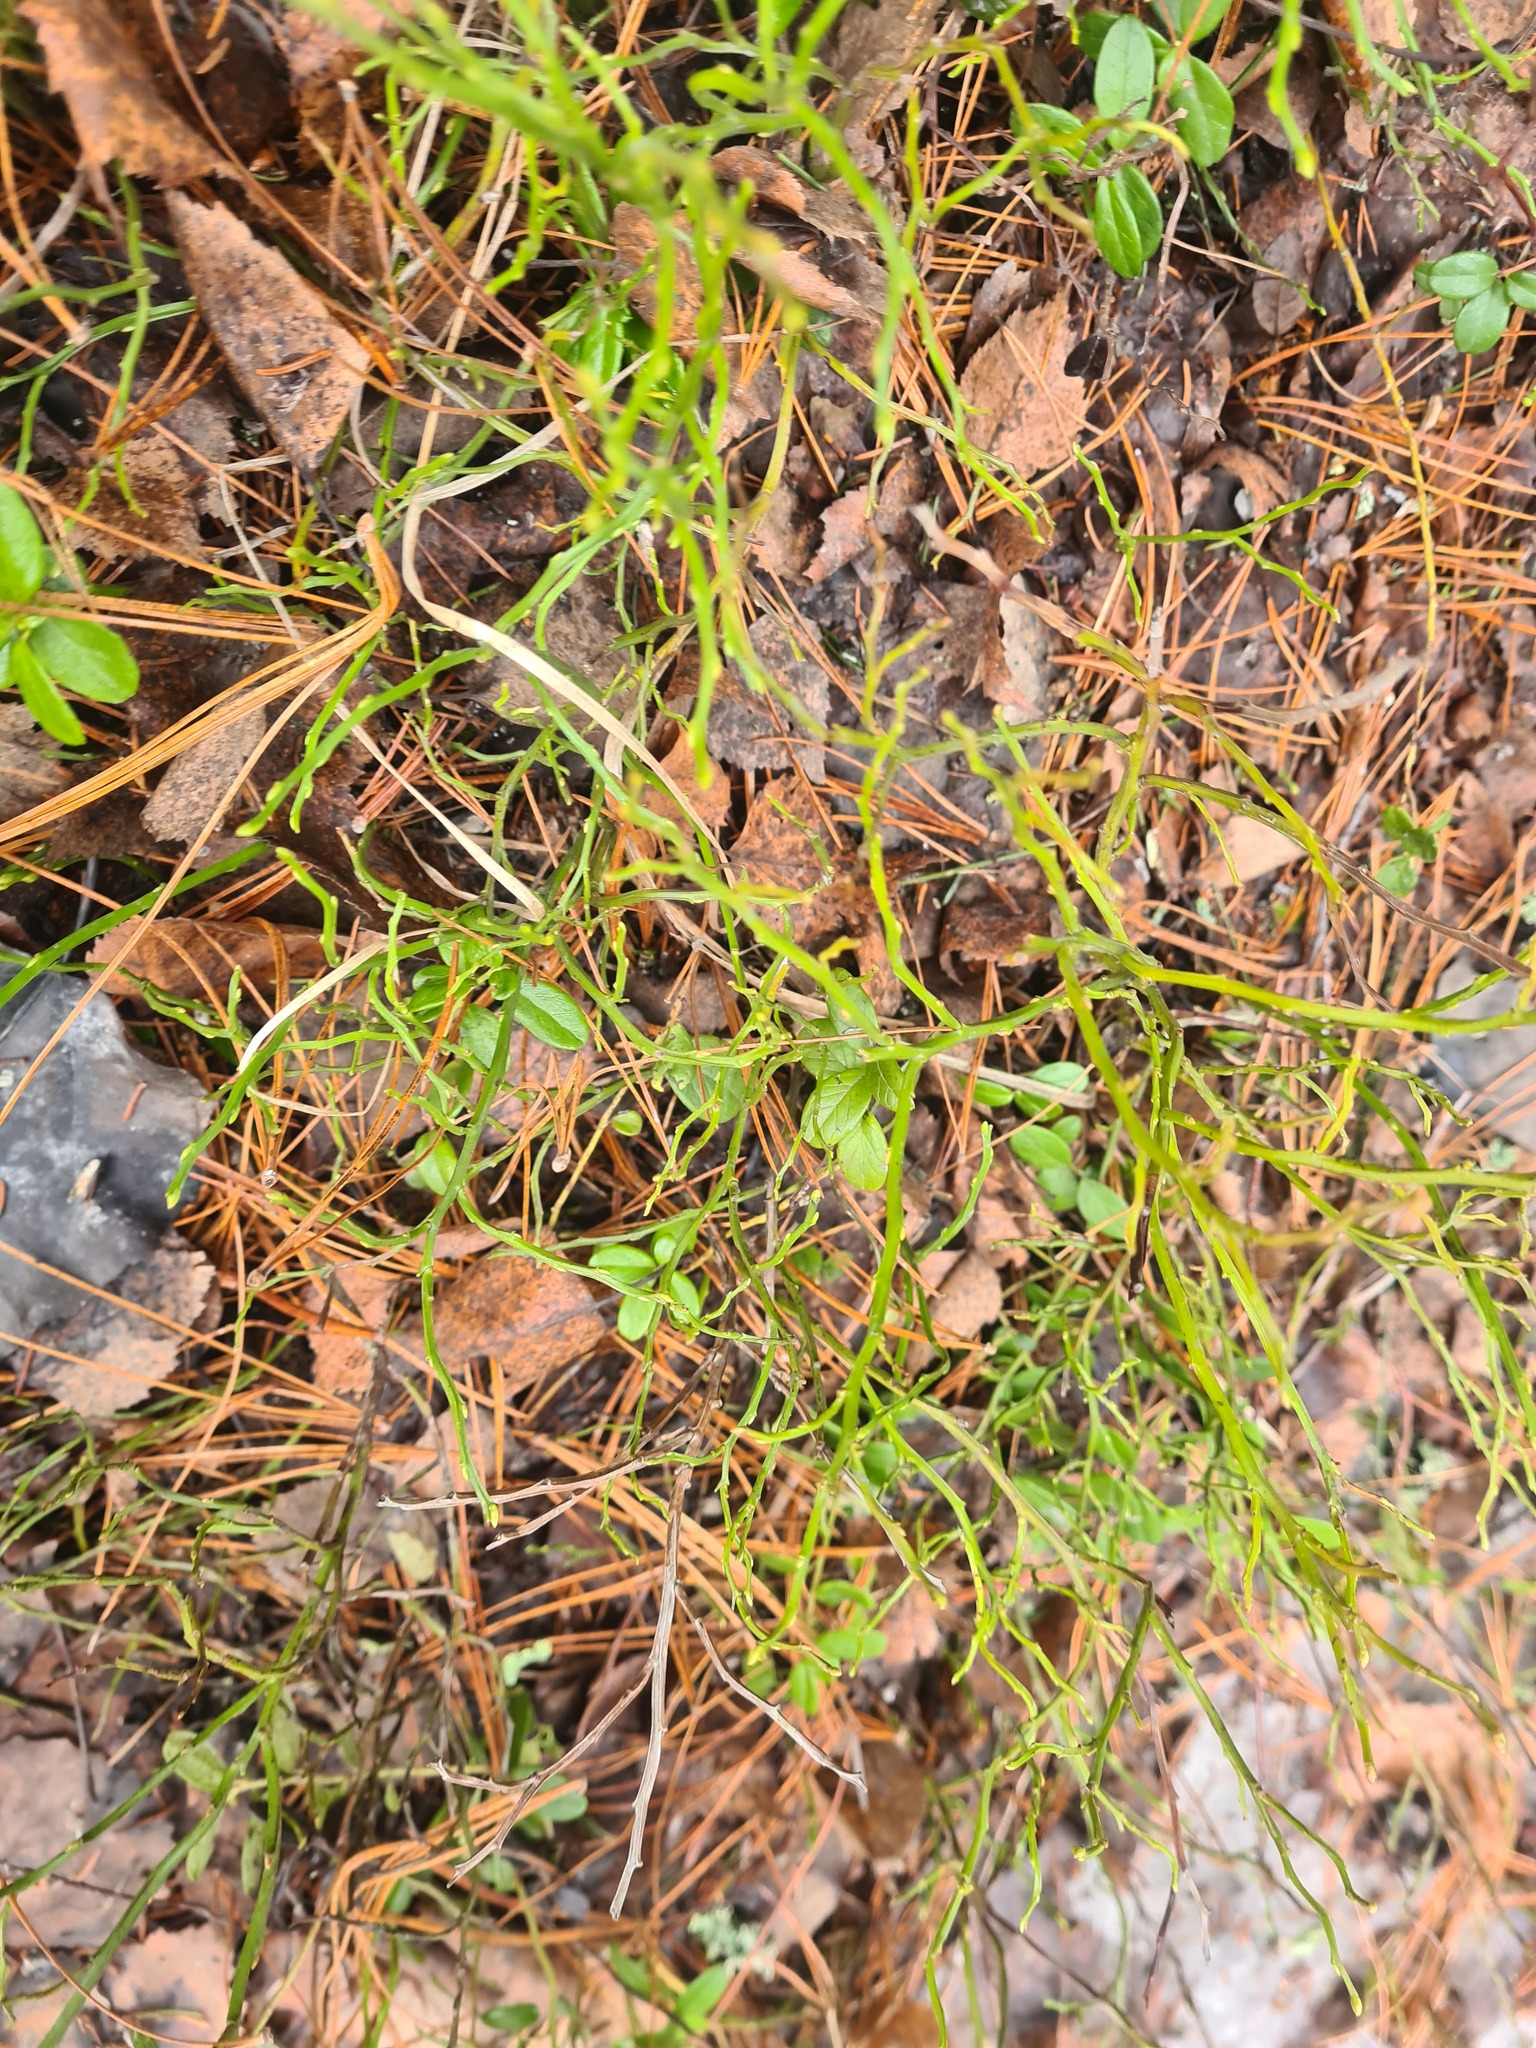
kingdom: Plantae
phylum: Tracheophyta
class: Magnoliopsida
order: Ericales
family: Ericaceae
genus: Vaccinium
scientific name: Vaccinium myrtillus
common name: Bilberry
